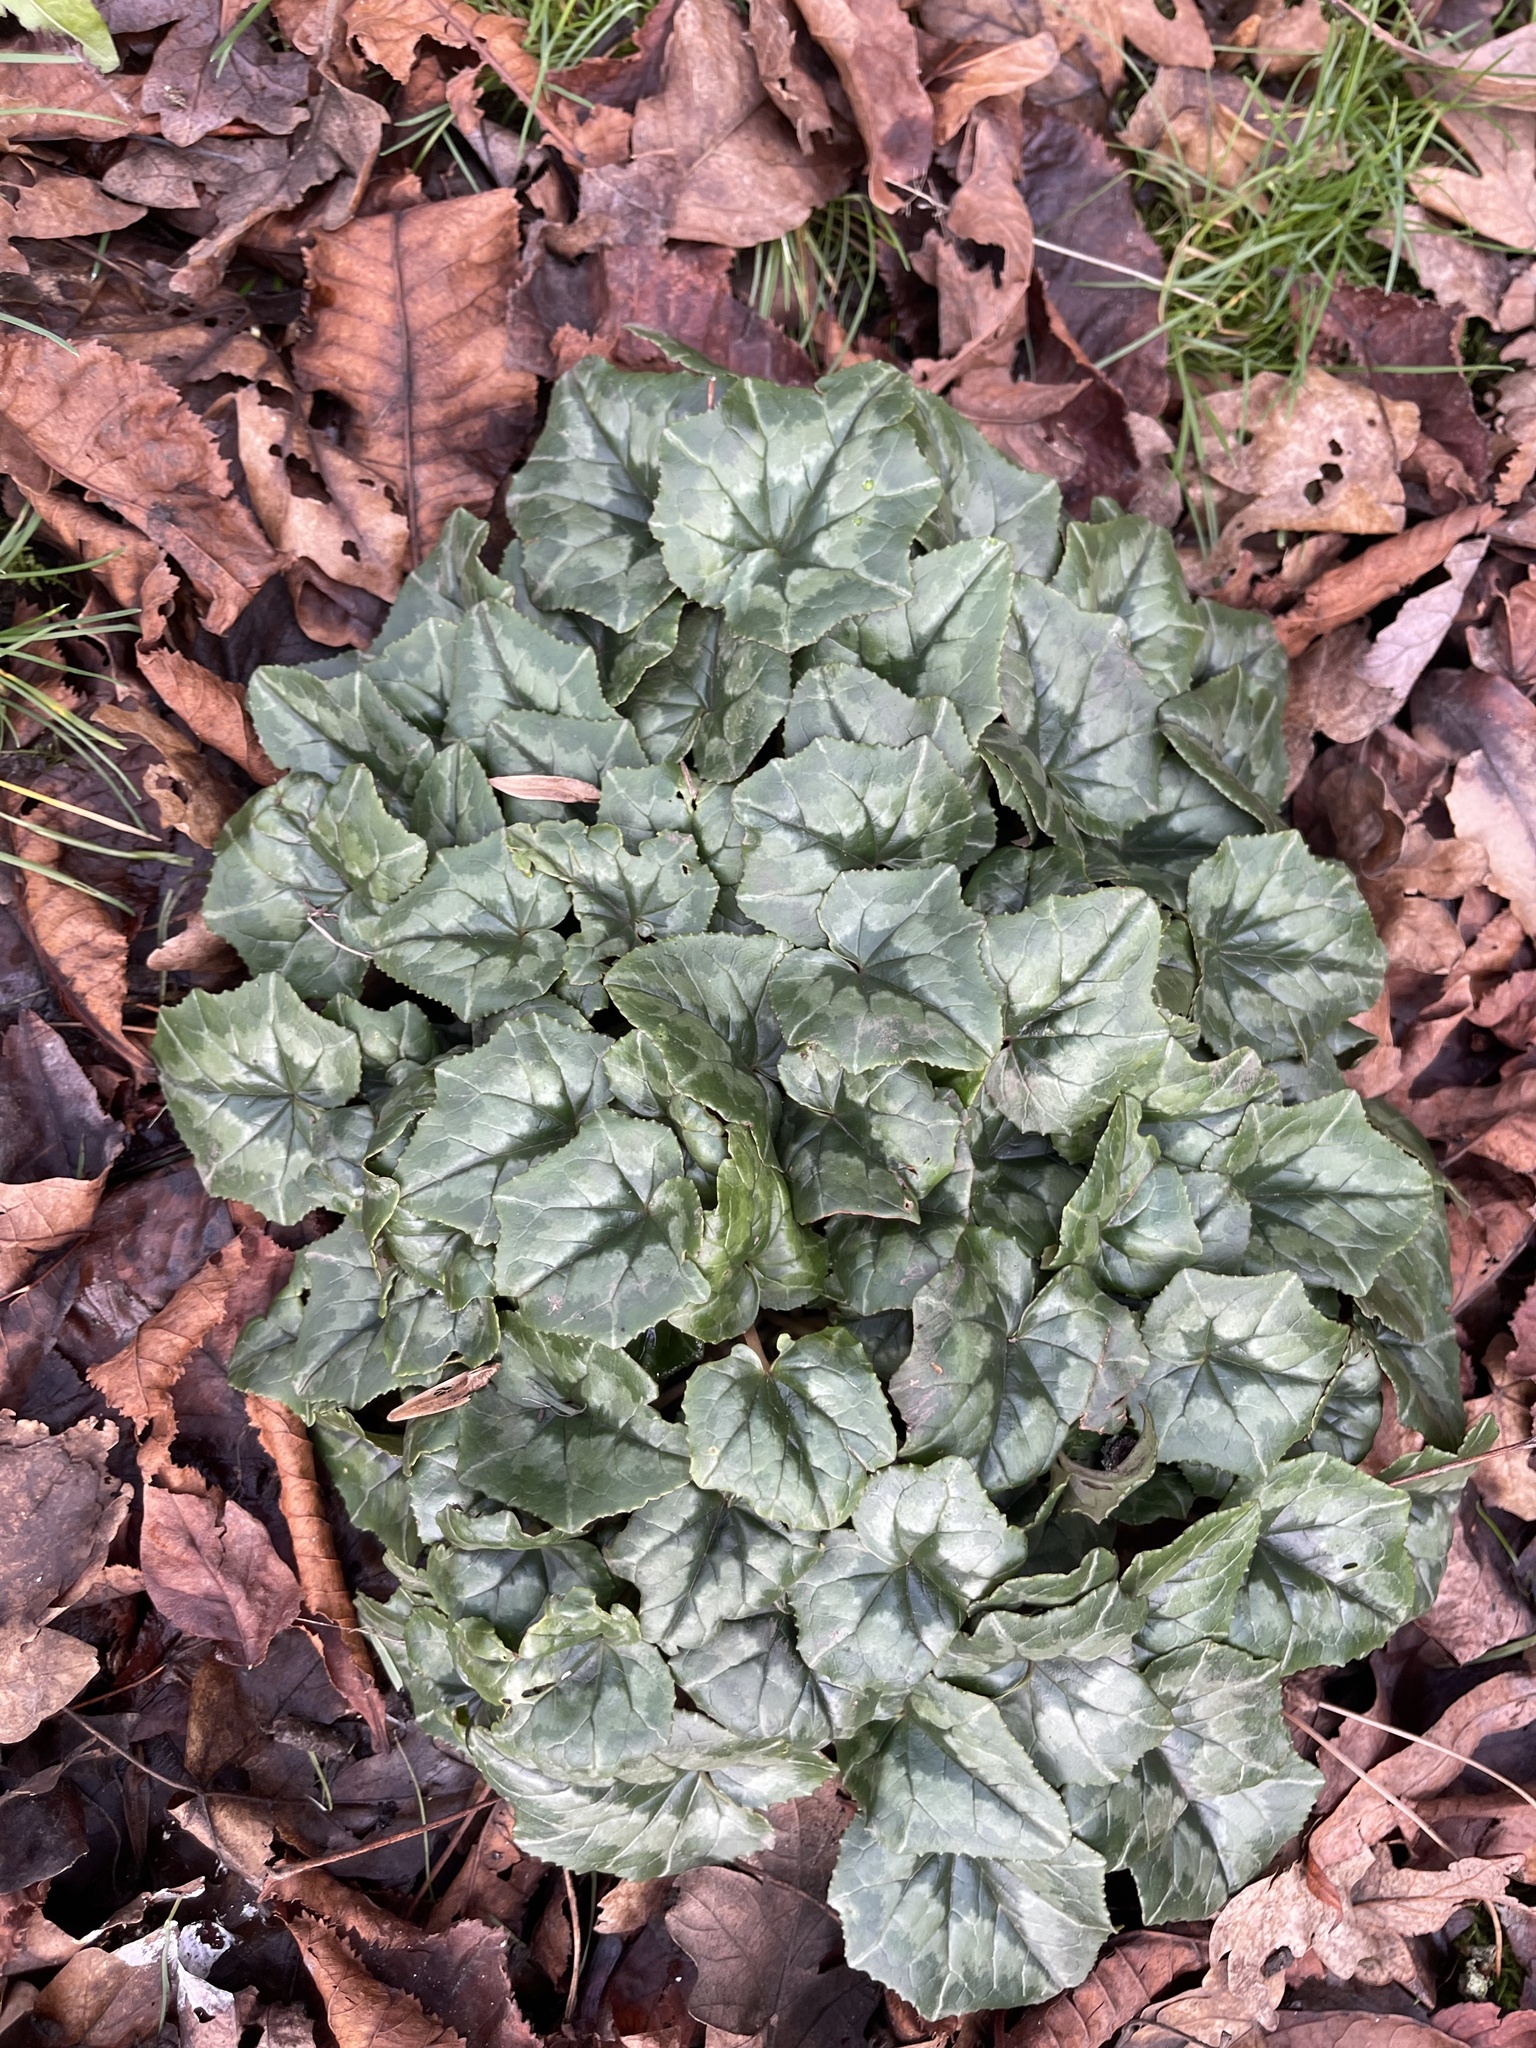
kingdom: Plantae
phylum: Tracheophyta
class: Magnoliopsida
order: Ericales
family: Primulaceae
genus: Cyclamen
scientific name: Cyclamen hederifolium
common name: Sowbread
